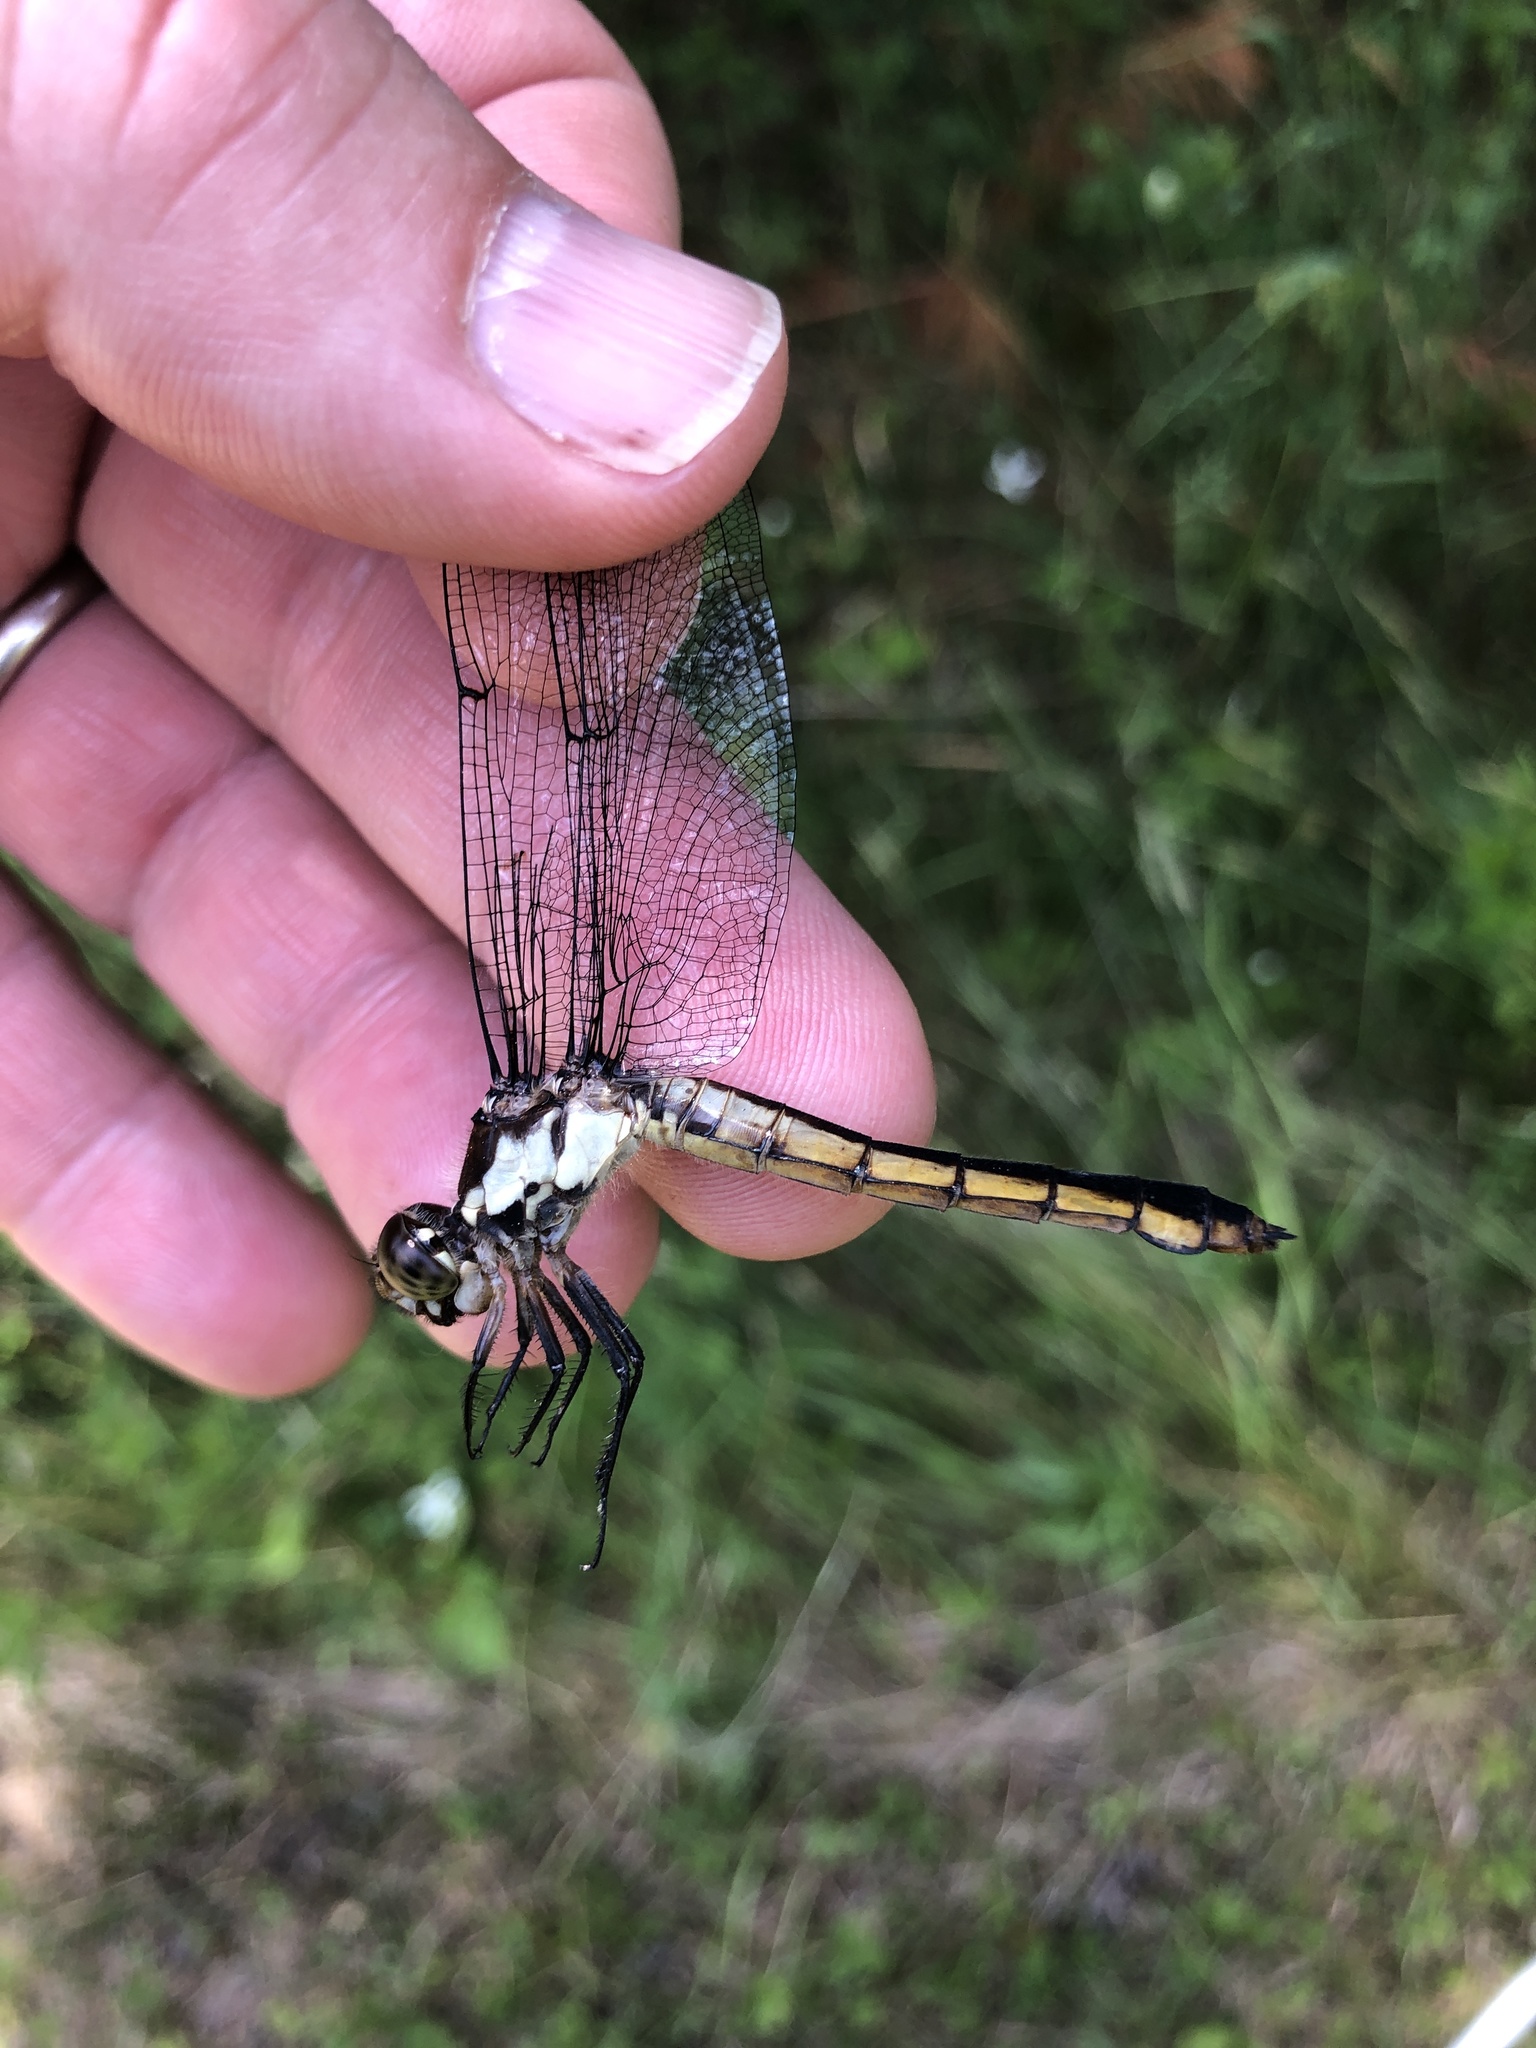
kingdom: Animalia
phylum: Arthropoda
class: Insecta
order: Odonata
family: Libellulidae
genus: Libellula
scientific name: Libellula incesta
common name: Slaty skimmer
